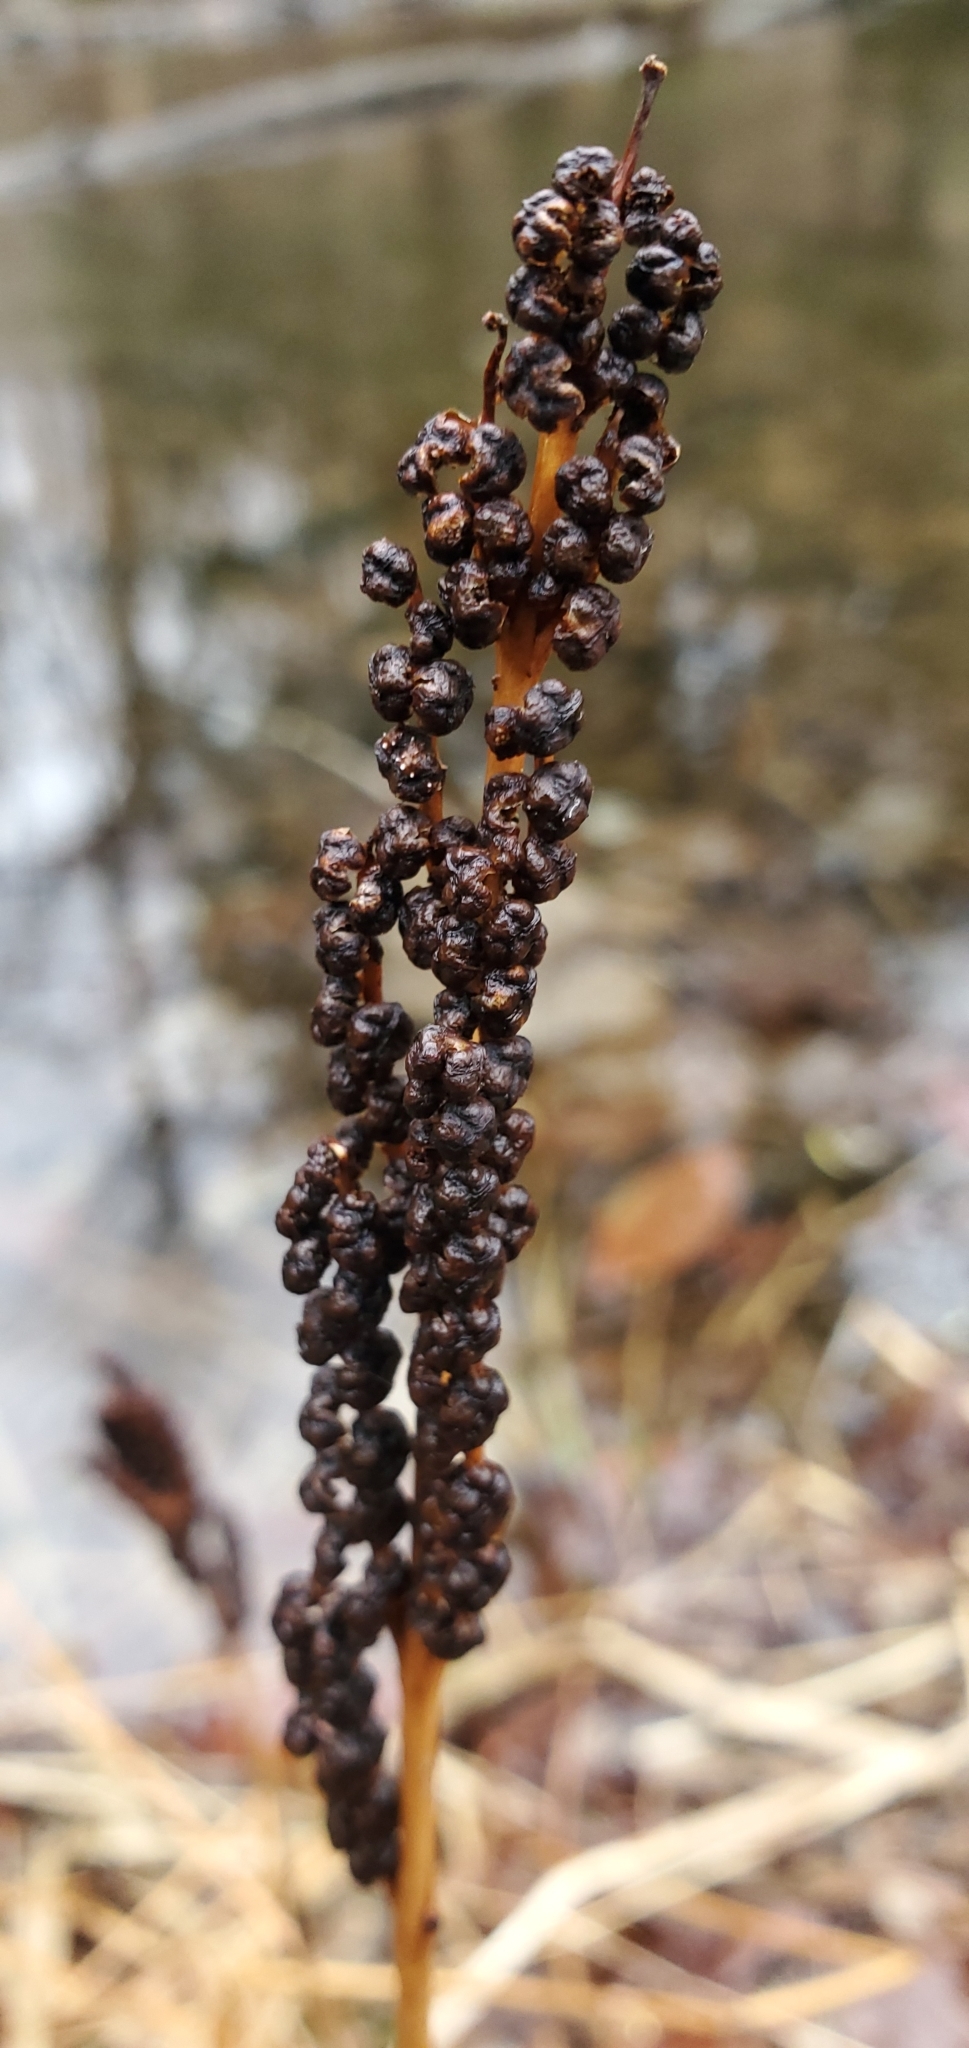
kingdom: Plantae
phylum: Tracheophyta
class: Polypodiopsida
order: Polypodiales
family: Onocleaceae
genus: Onoclea
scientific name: Onoclea sensibilis
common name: Sensitive fern
